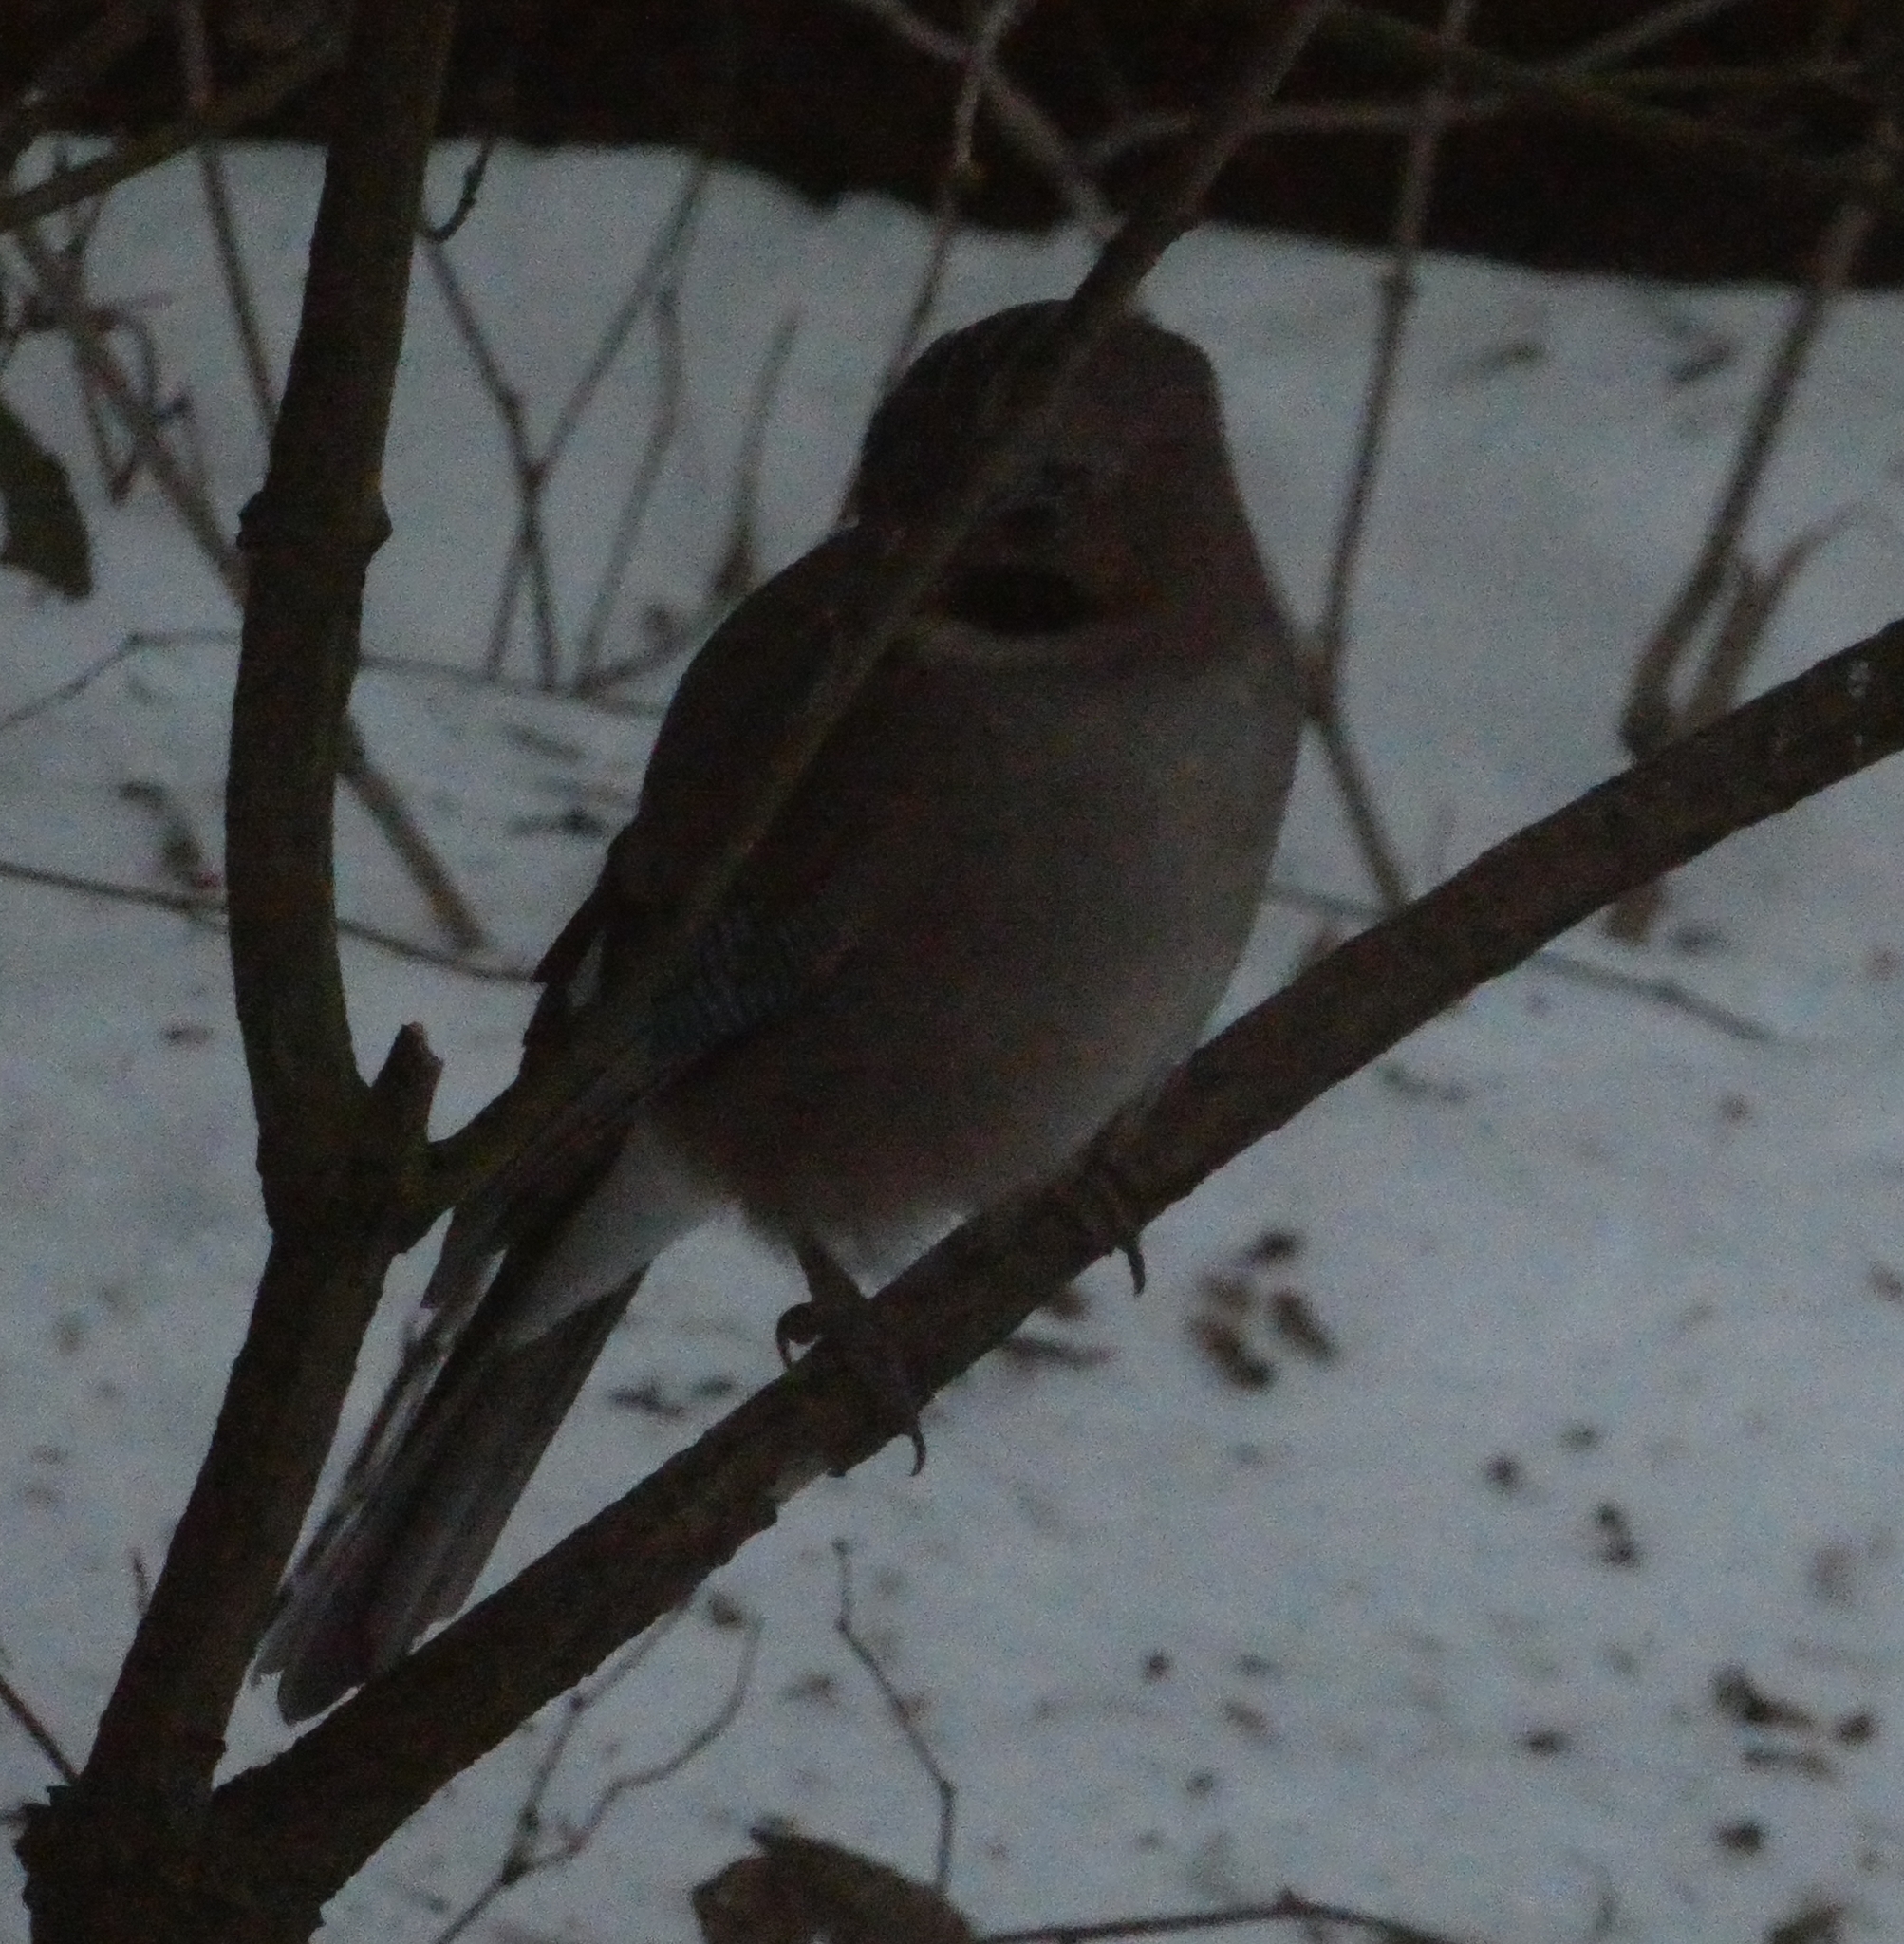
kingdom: Animalia
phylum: Chordata
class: Aves
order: Passeriformes
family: Corvidae
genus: Garrulus
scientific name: Garrulus glandarius
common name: Eurasian jay
